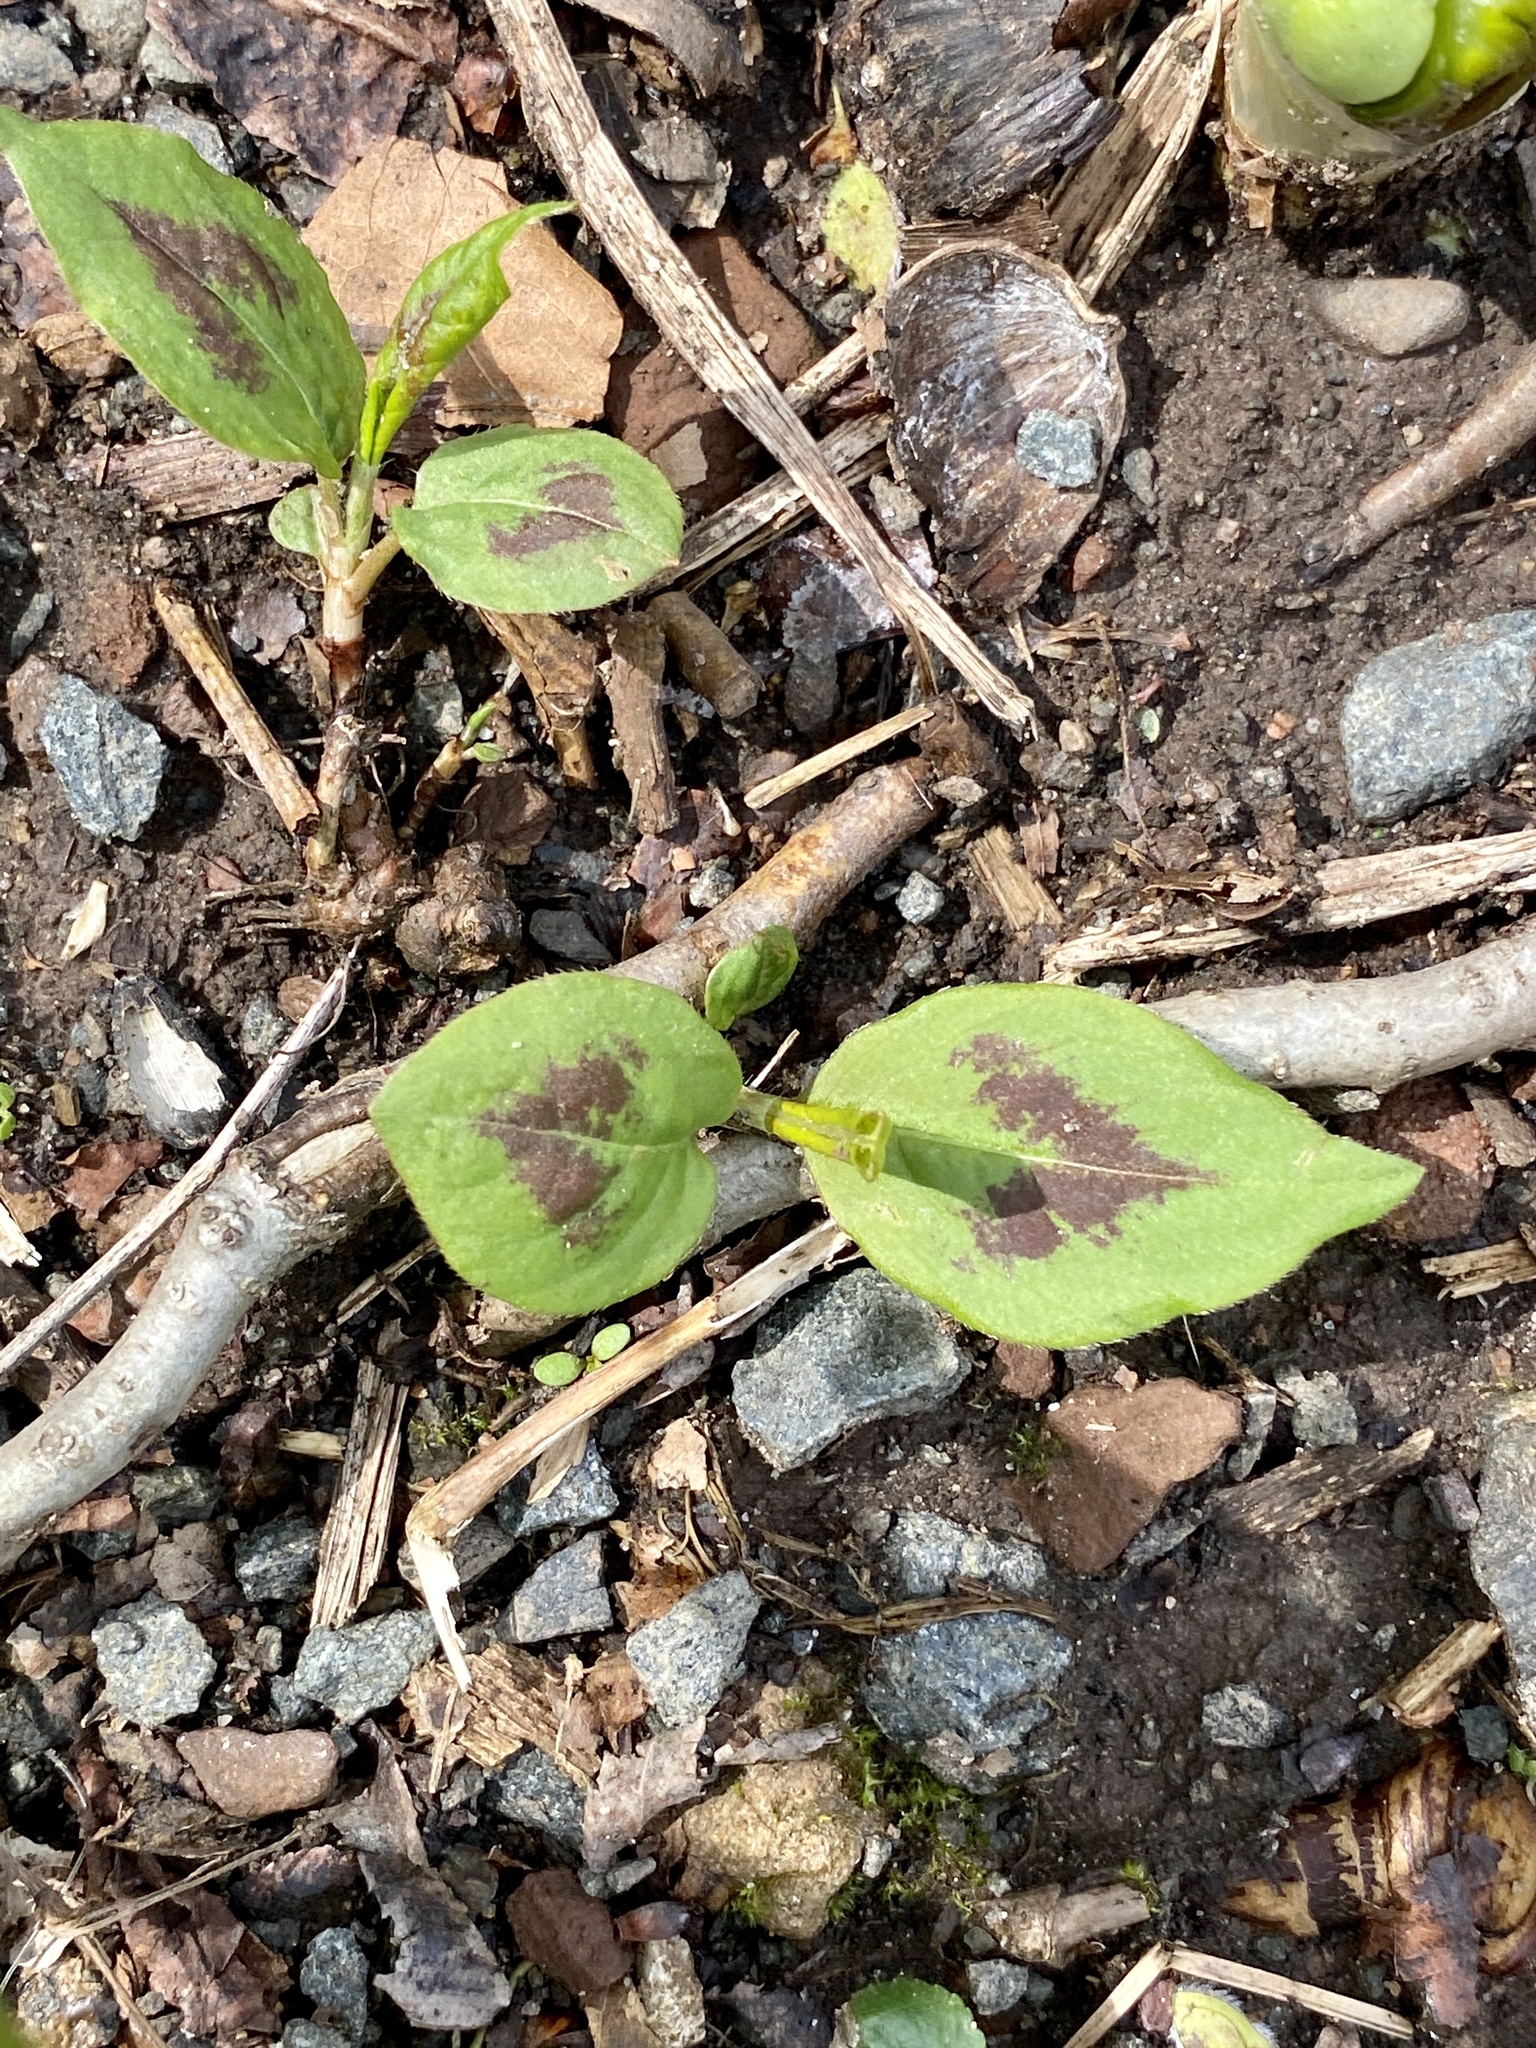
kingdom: Plantae
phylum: Tracheophyta
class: Magnoliopsida
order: Caryophyllales
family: Polygonaceae
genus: Persicaria
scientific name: Persicaria virginiana
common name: Jumpseed
